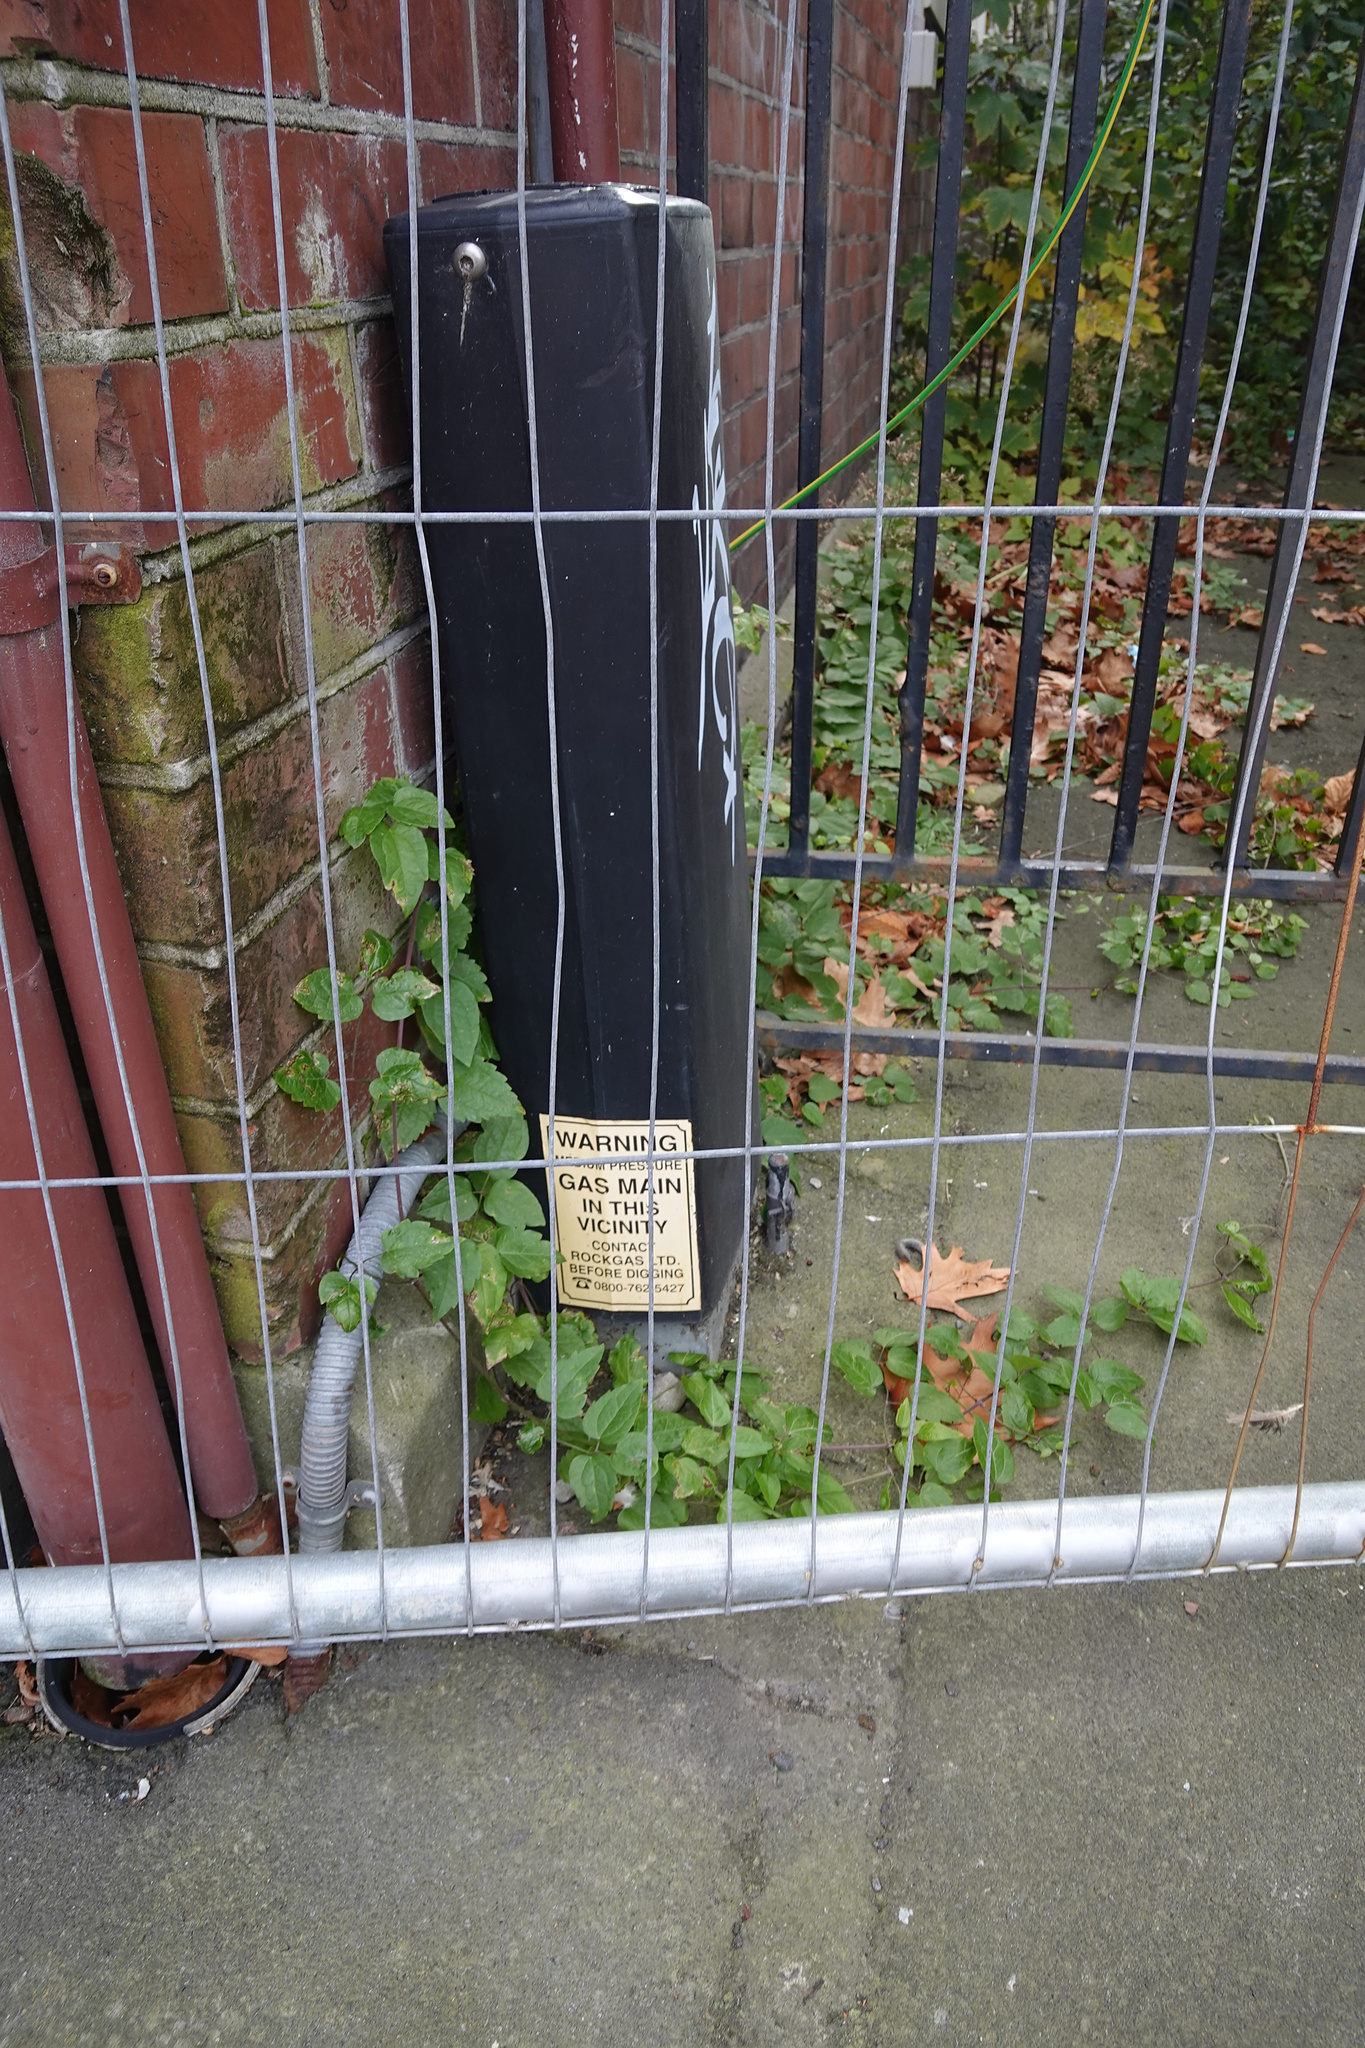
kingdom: Plantae
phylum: Tracheophyta
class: Magnoliopsida
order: Ranunculales
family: Ranunculaceae
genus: Clematis
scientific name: Clematis vitalba
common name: Evergreen clematis
